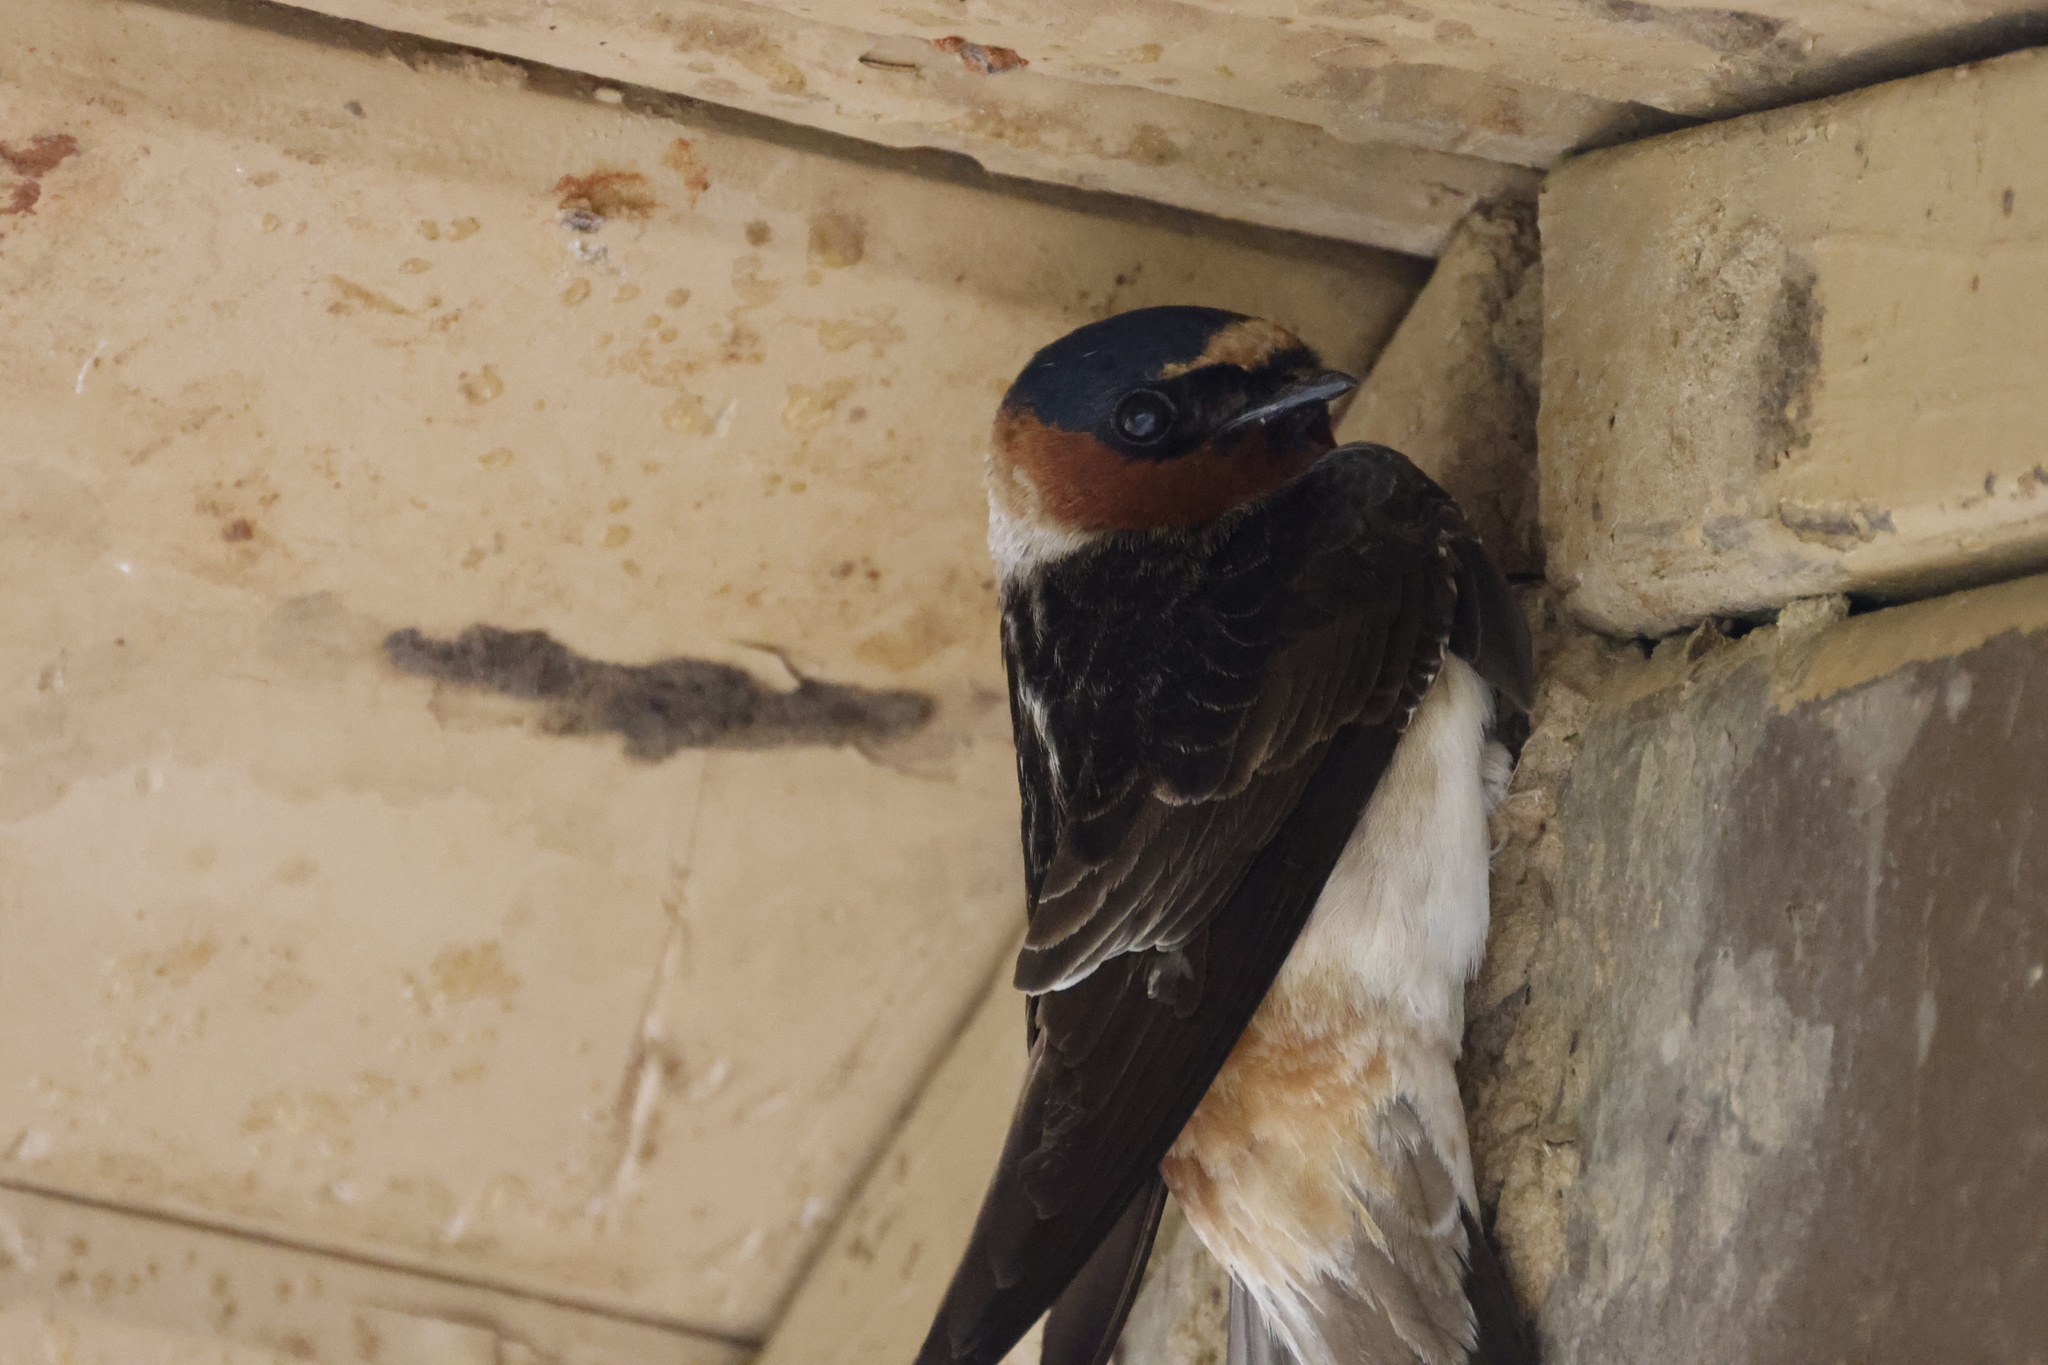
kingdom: Animalia
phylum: Chordata
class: Aves
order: Passeriformes
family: Hirundinidae
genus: Petrochelidon
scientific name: Petrochelidon pyrrhonota
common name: American cliff swallow
